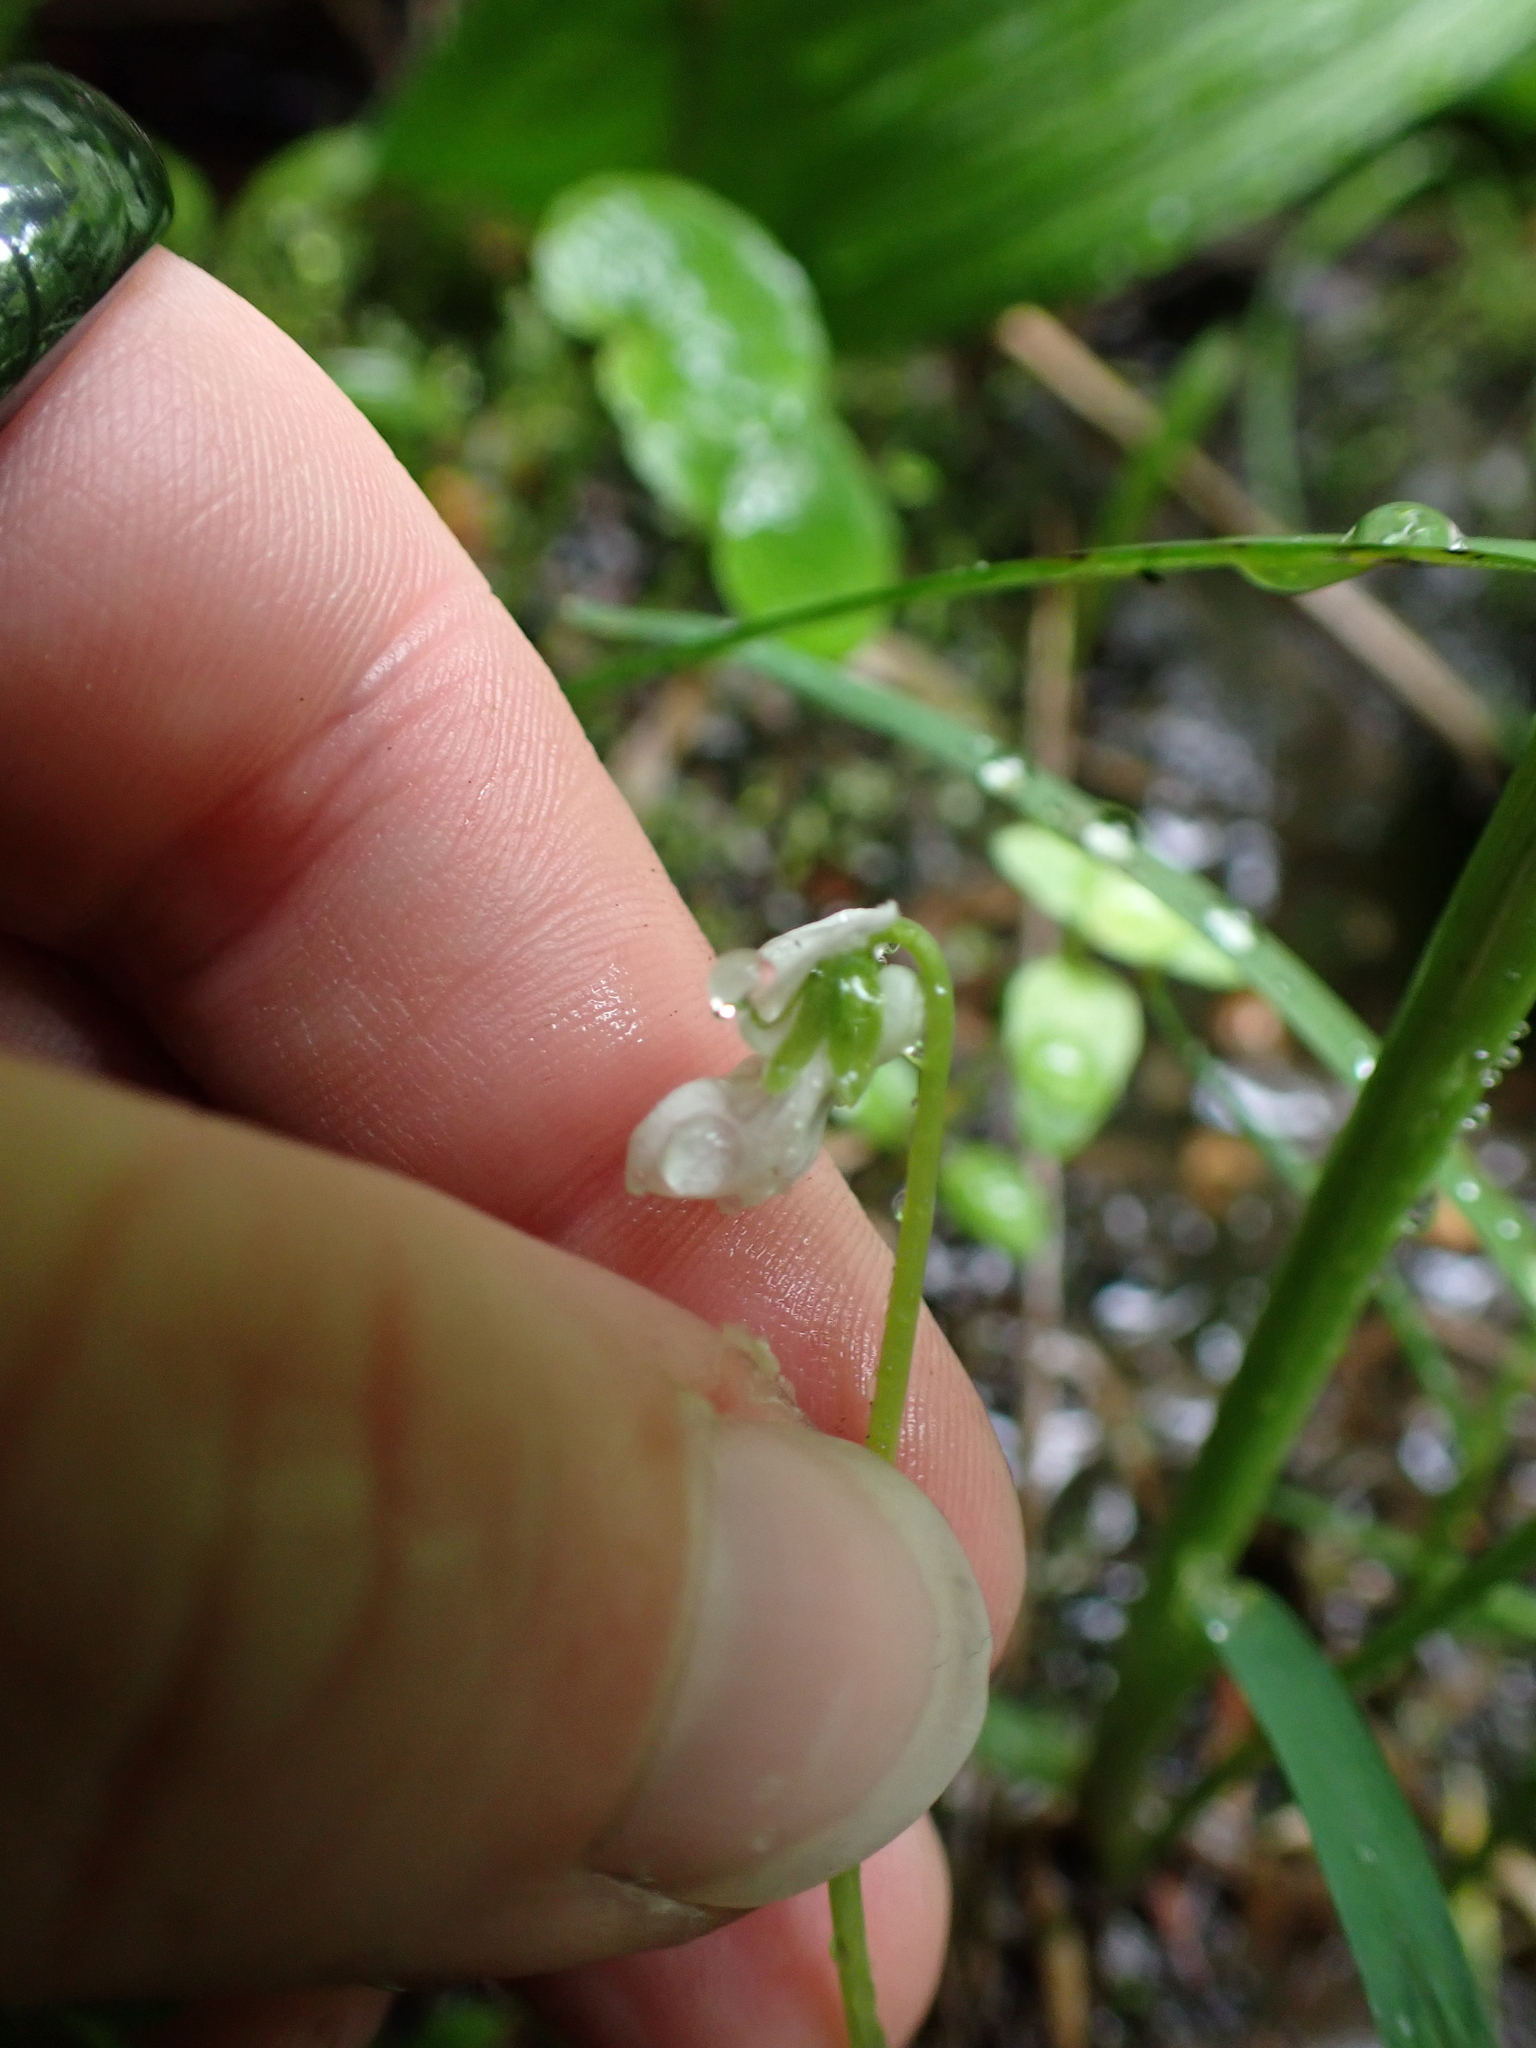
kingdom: Plantae
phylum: Tracheophyta
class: Magnoliopsida
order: Malpighiales
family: Violaceae
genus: Viola
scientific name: Viola minuscula
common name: Northern white violet
